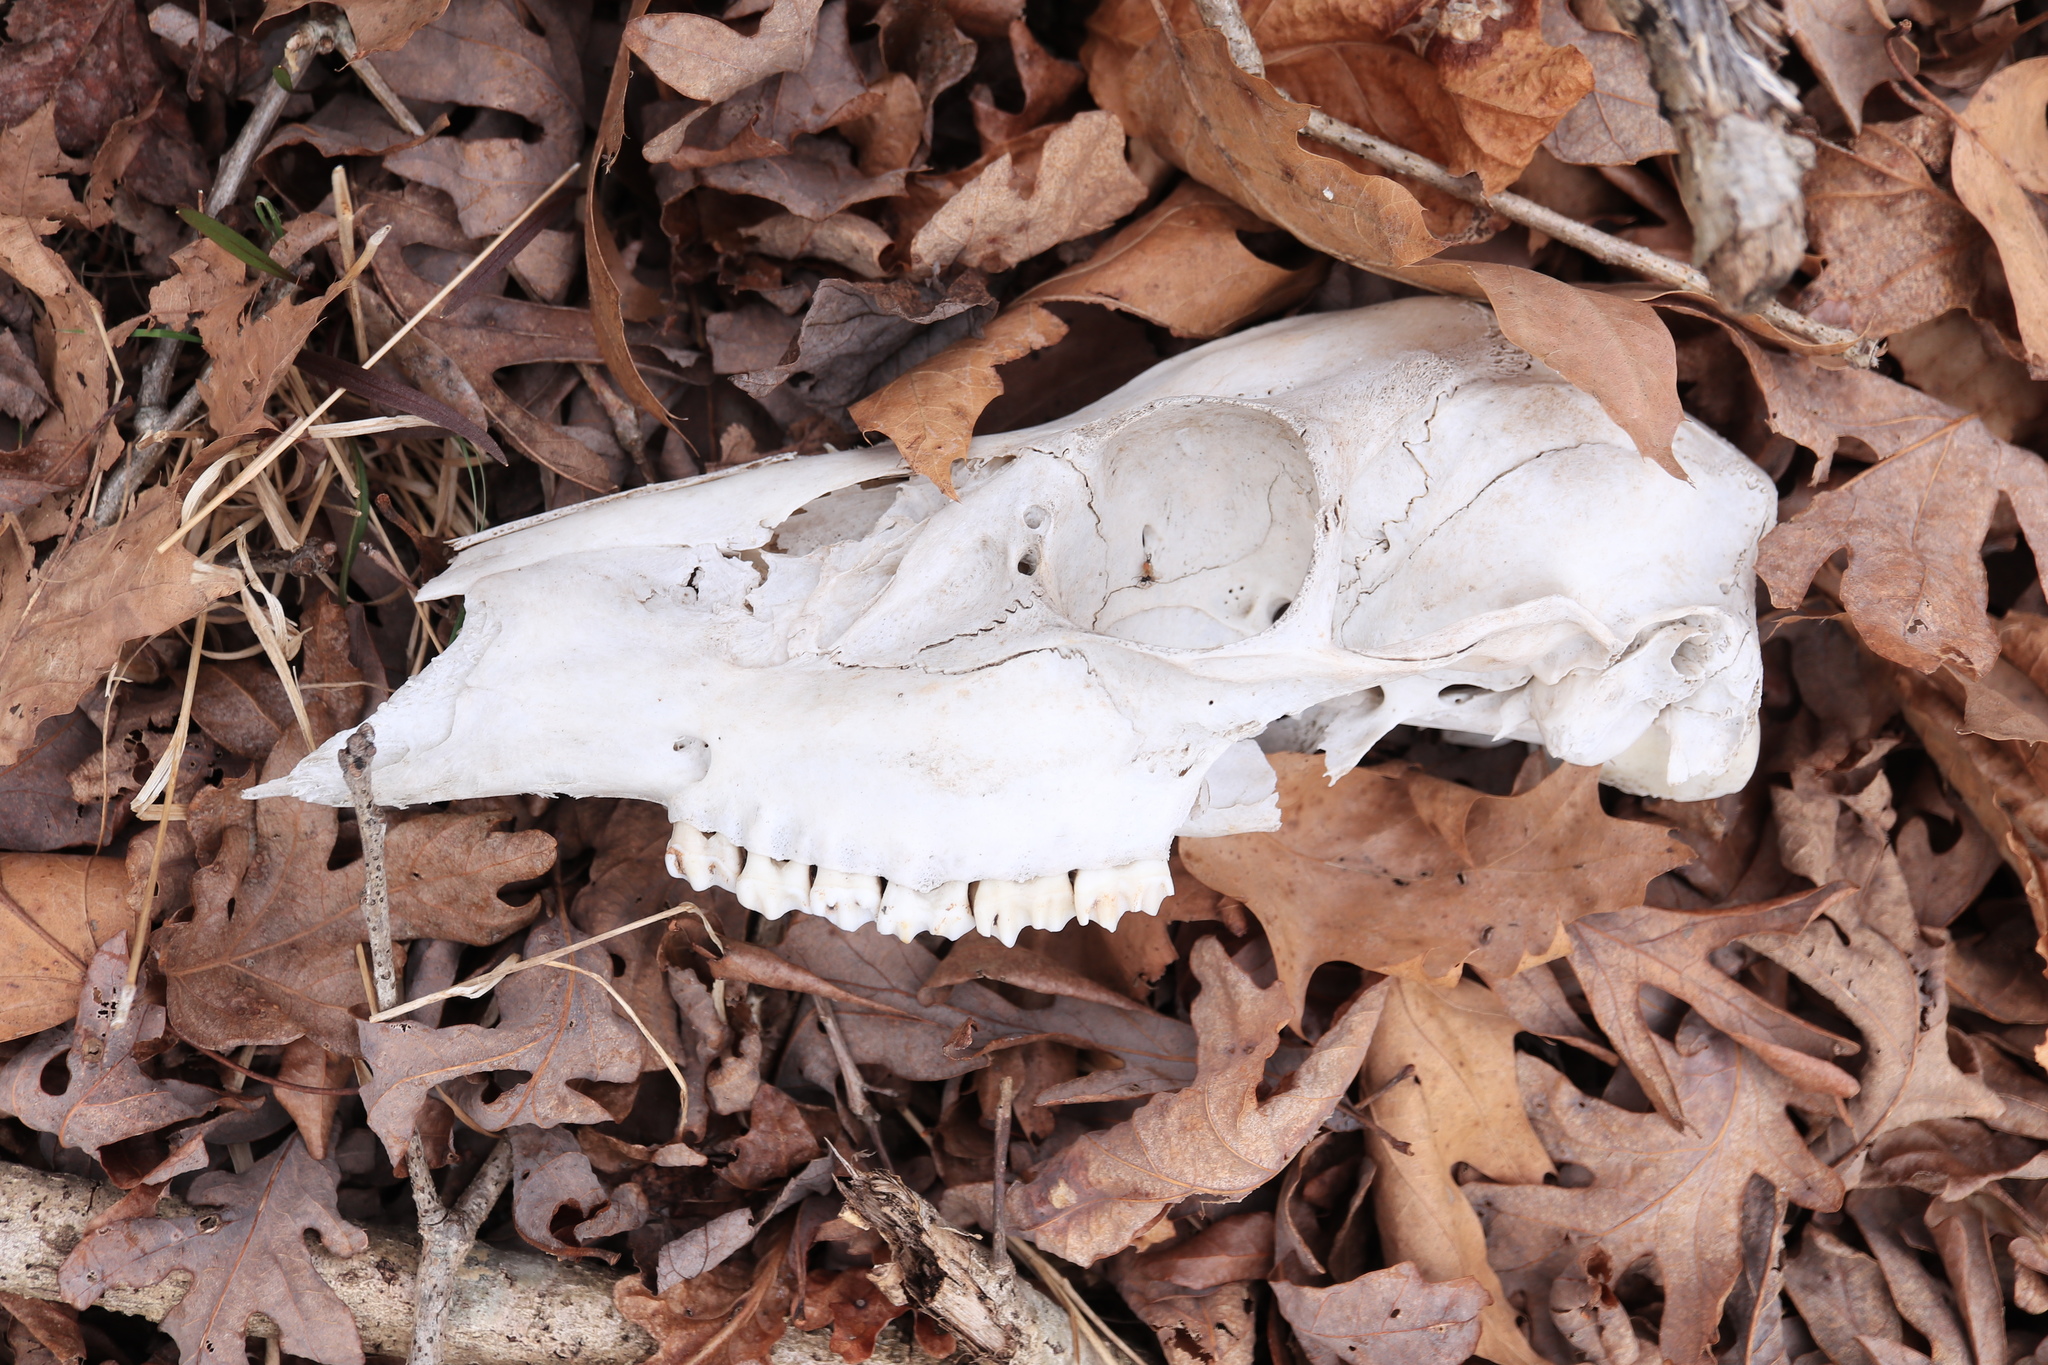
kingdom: Animalia
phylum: Chordata
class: Mammalia
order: Artiodactyla
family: Cervidae
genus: Odocoileus
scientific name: Odocoileus virginianus
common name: White-tailed deer
